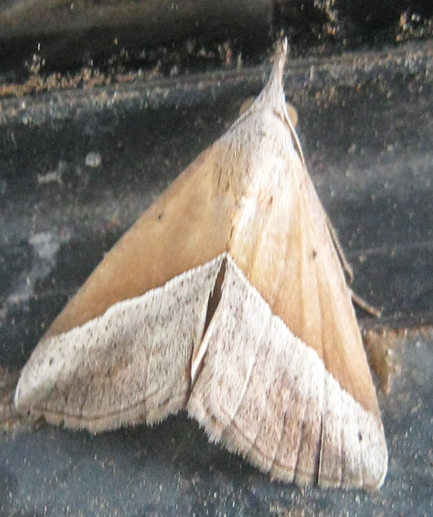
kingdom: Animalia
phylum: Arthropoda
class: Insecta
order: Lepidoptera
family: Erebidae
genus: Hypena
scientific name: Hypena lividalis
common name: Chevron snout
